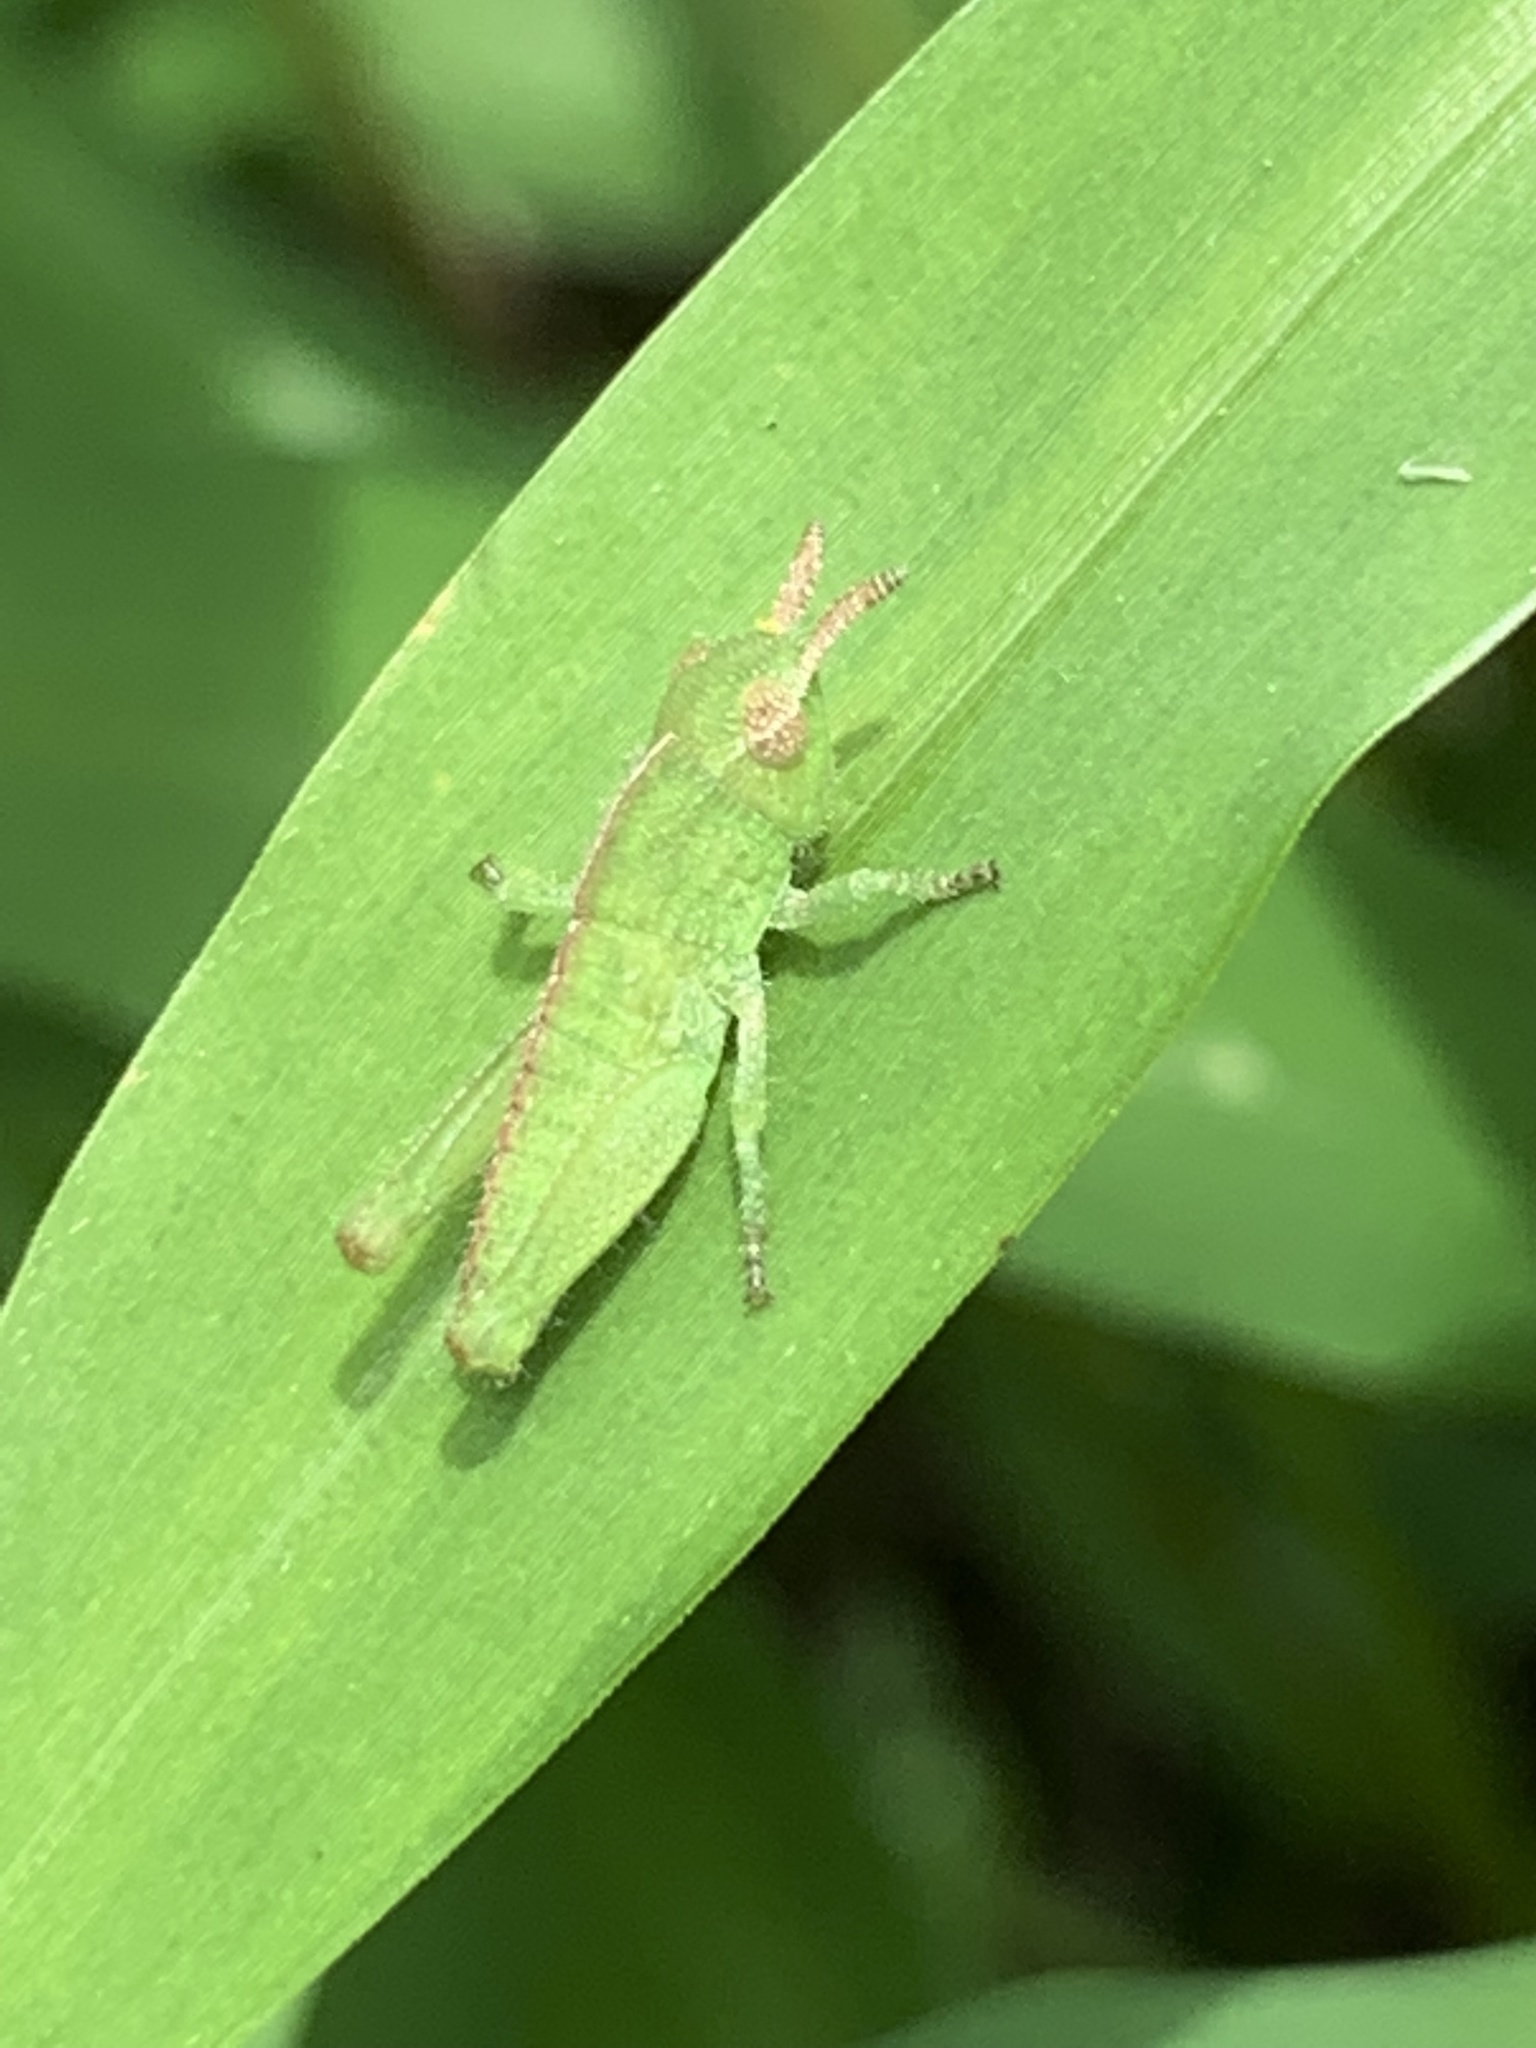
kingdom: Animalia
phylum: Arthropoda
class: Insecta
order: Orthoptera
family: Acrididae
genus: Chortophaga
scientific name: Chortophaga viridifasciata
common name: Green-striped grasshopper
